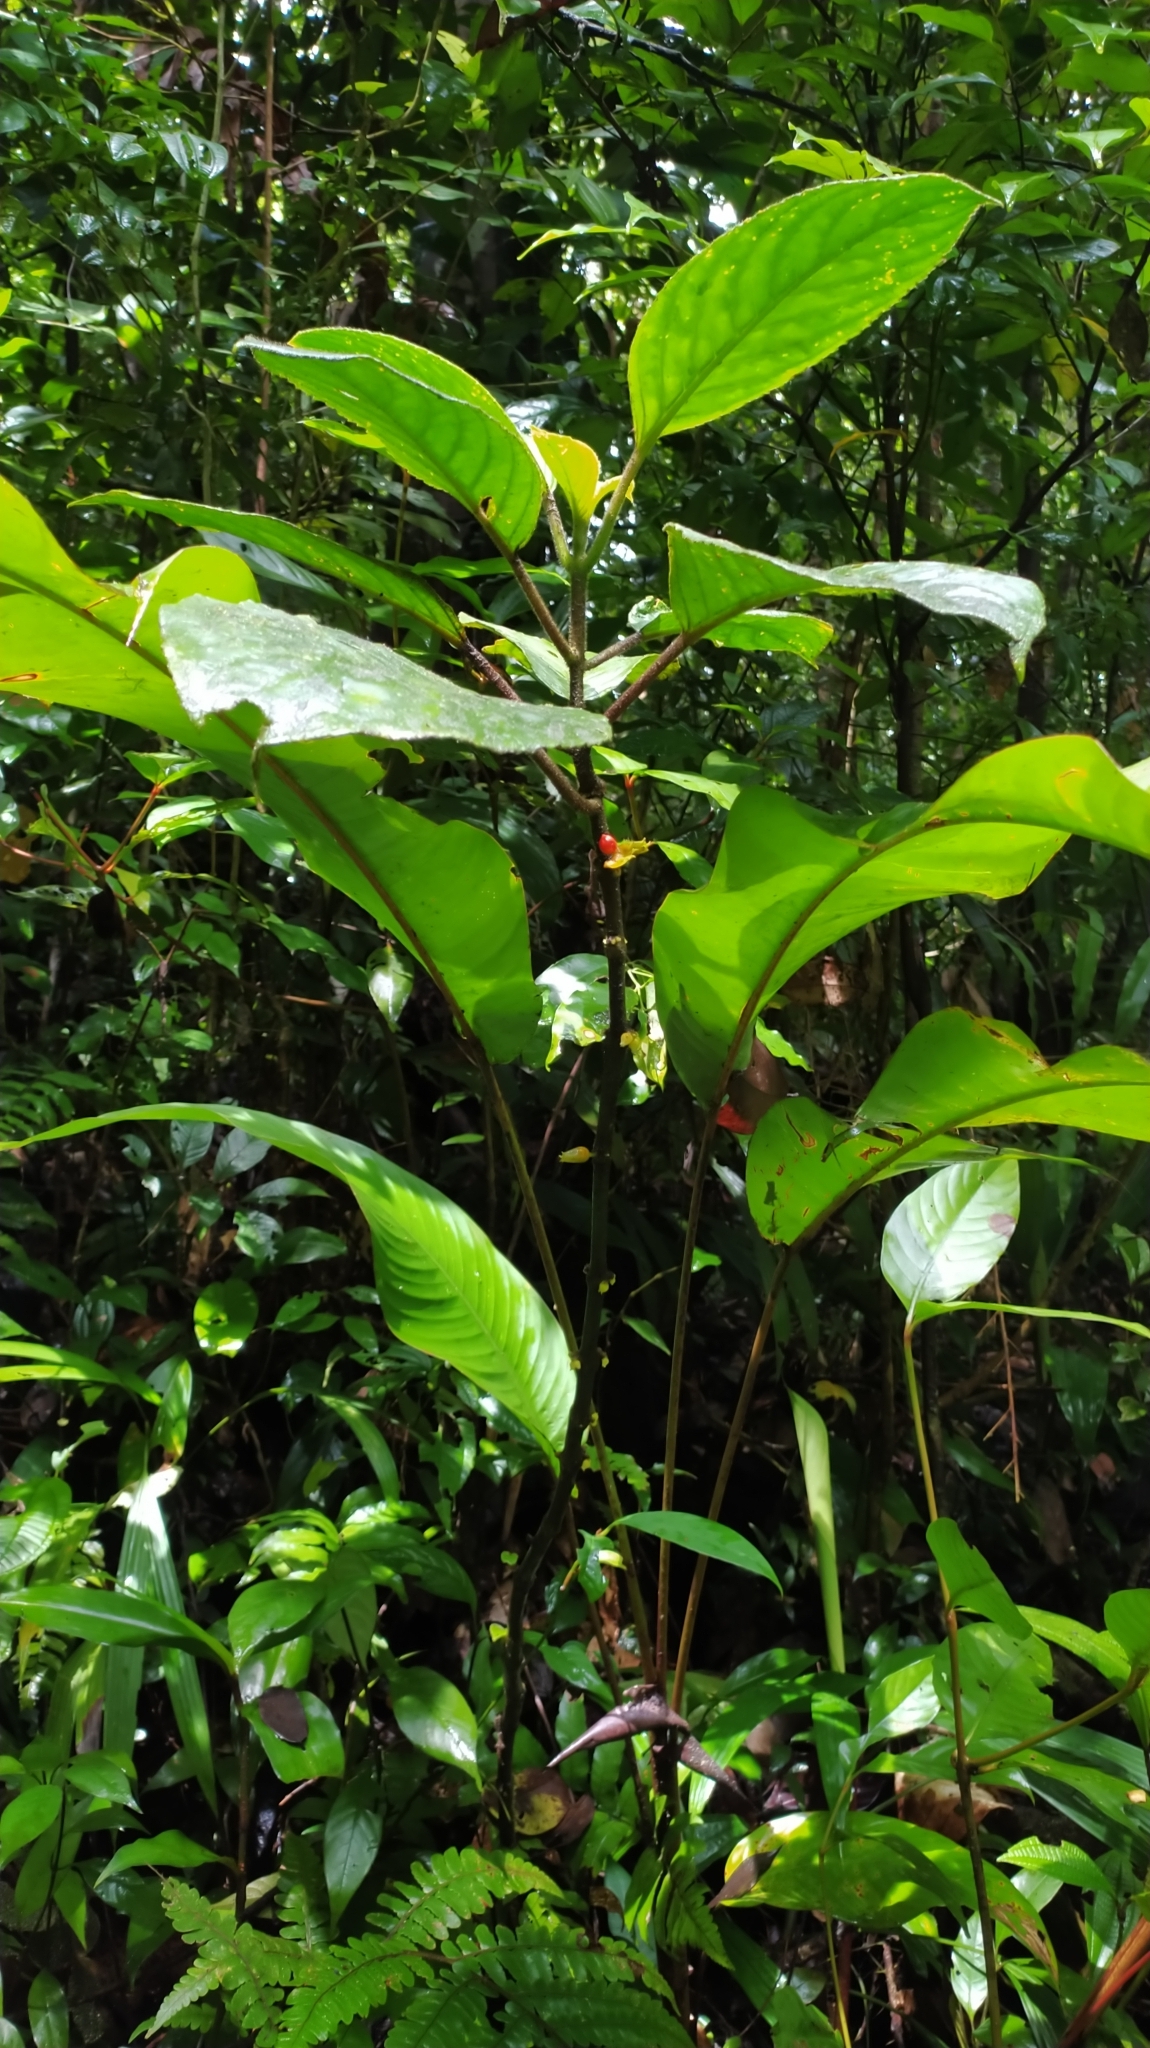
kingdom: Plantae
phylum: Tracheophyta
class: Magnoliopsida
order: Lamiales
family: Gesneriaceae
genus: Besleria
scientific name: Besleria insolita
